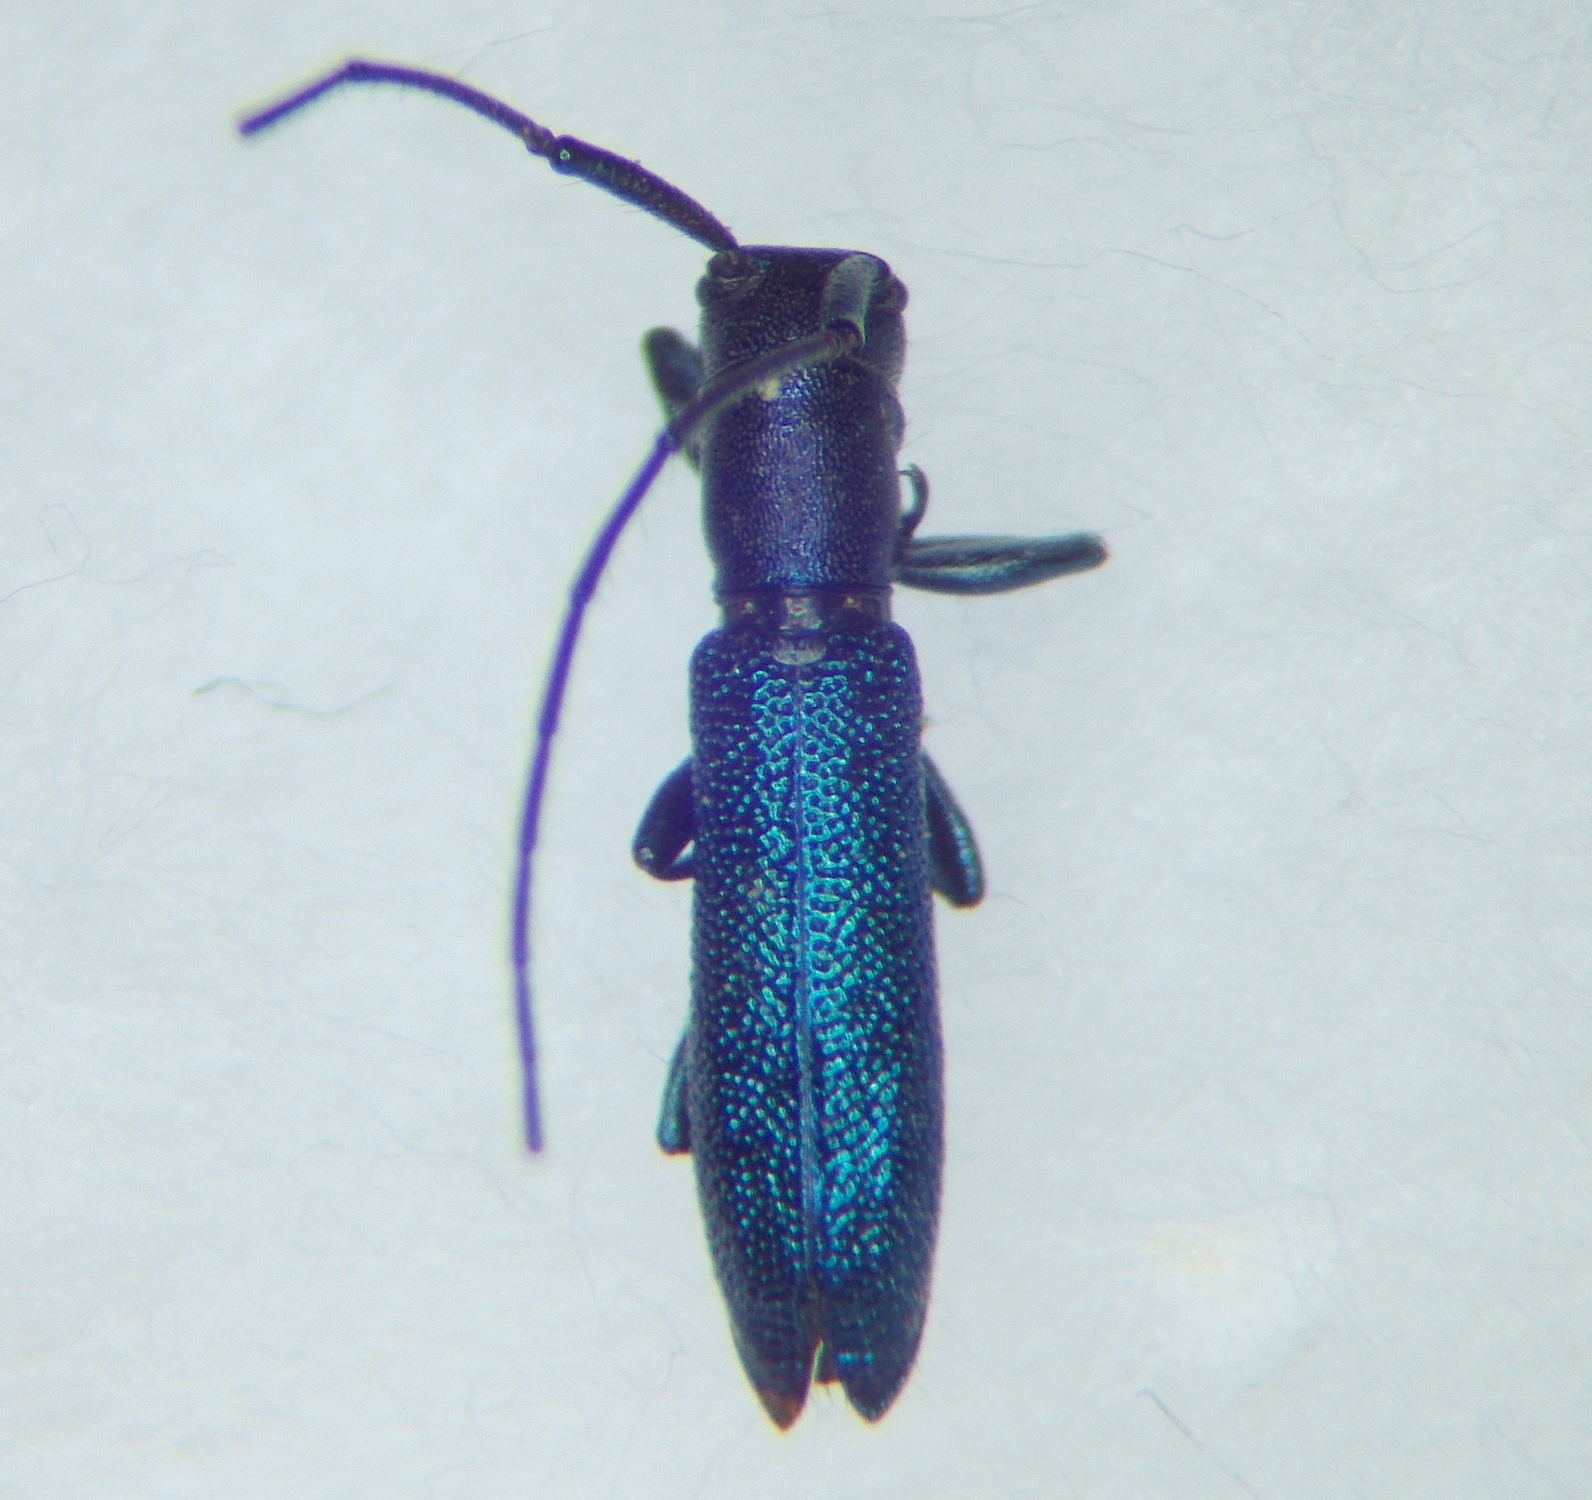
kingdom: Animalia
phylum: Arthropoda
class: Insecta
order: Coleoptera
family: Cerambycidae
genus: Agapanthiola
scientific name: Agapanthiola leucaspis
